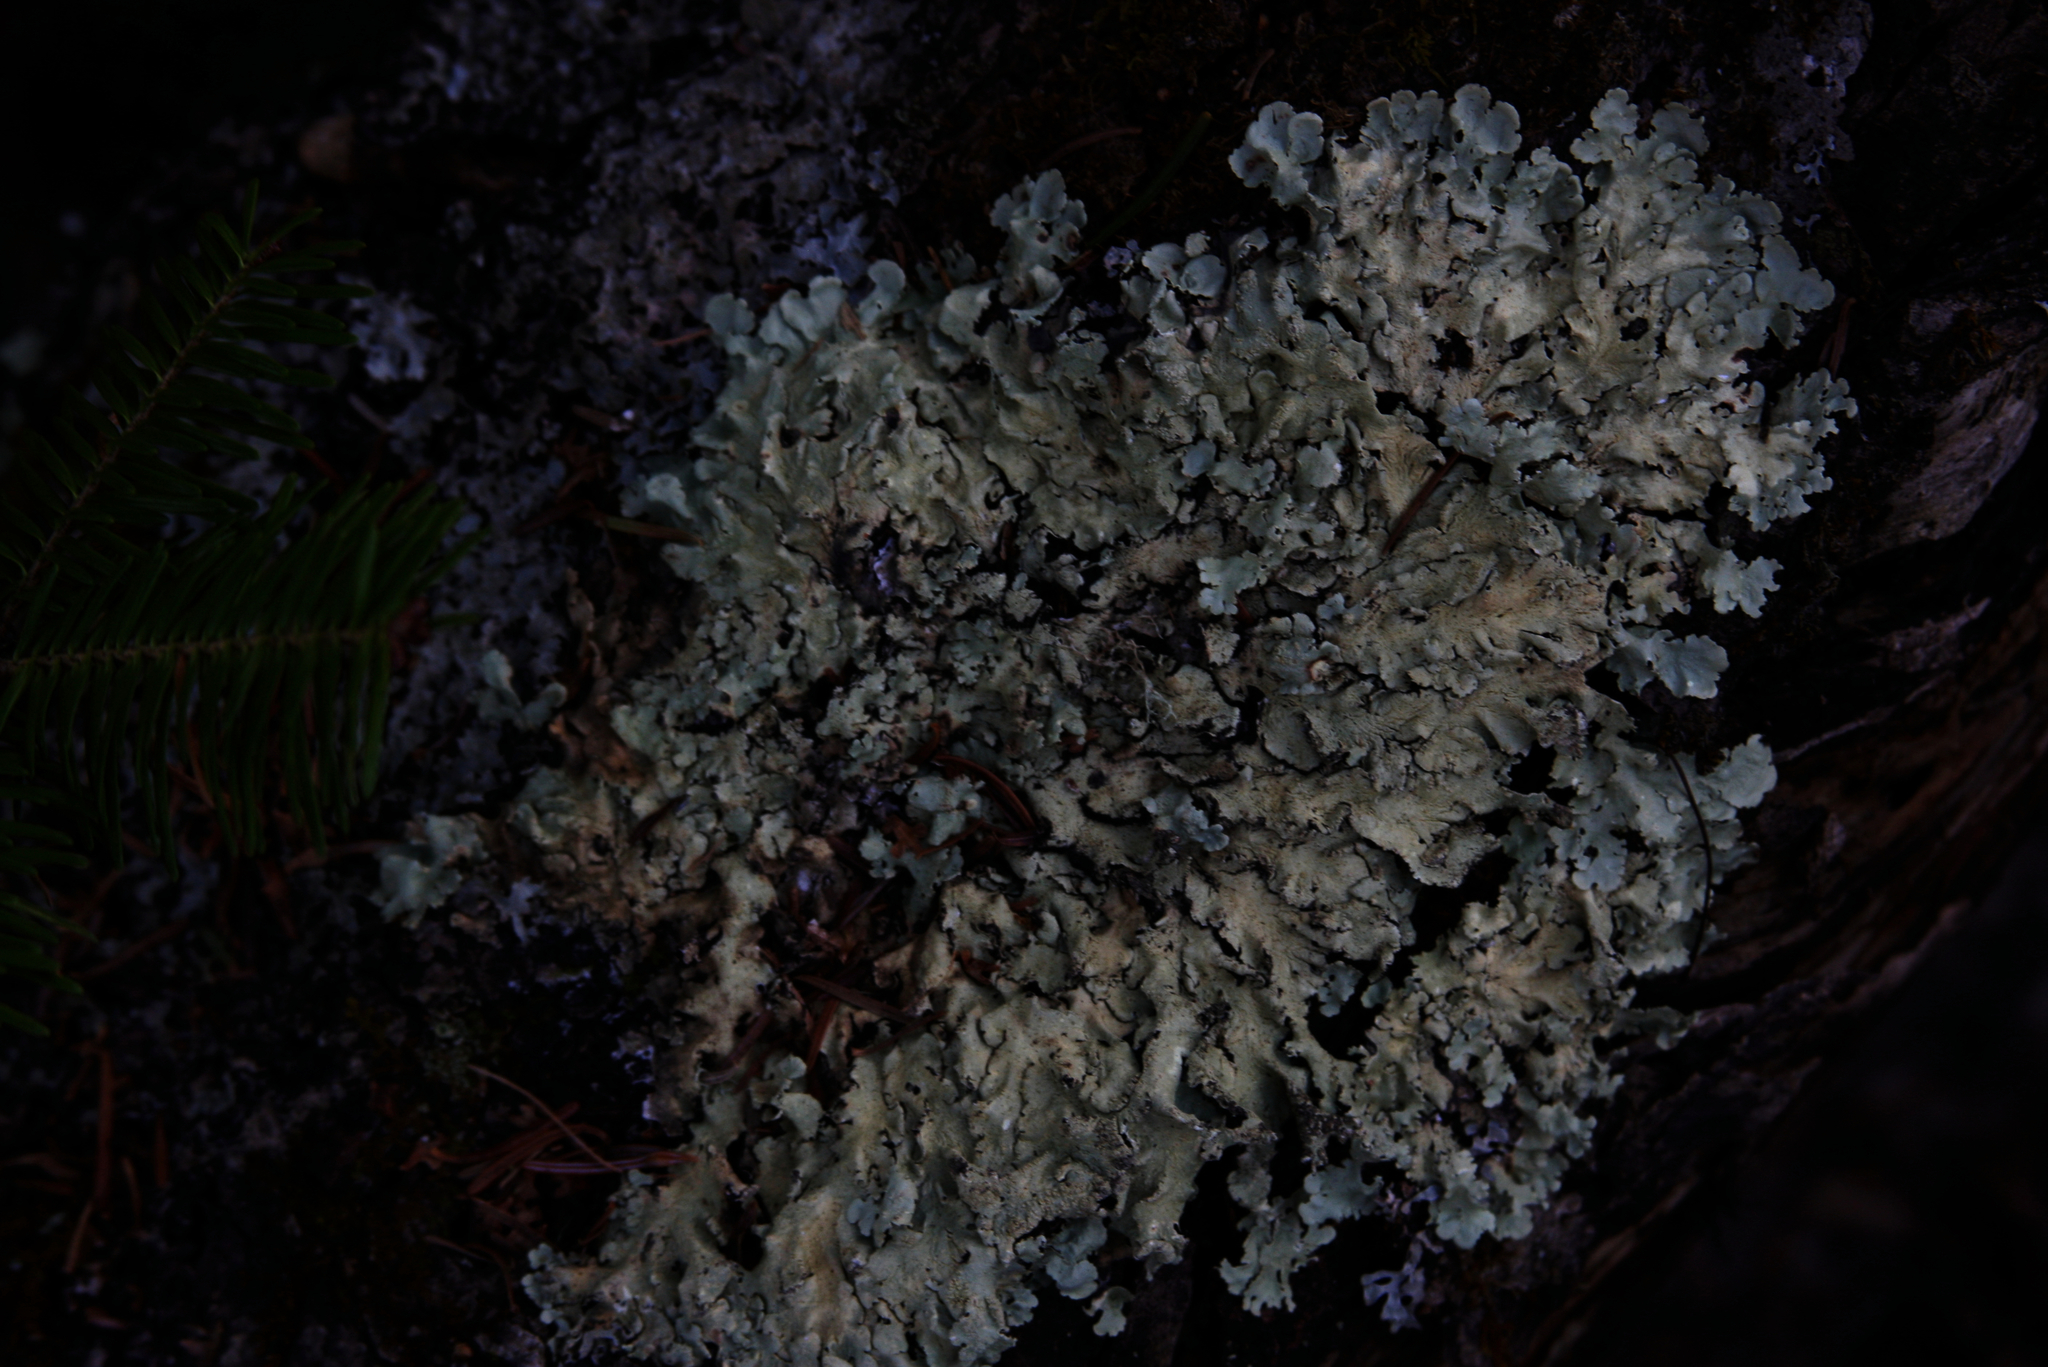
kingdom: Plantae
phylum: Tracheophyta
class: Pinopsida
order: Pinales
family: Pinaceae
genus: Abies
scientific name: Abies balsamea
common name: Balsam fir
